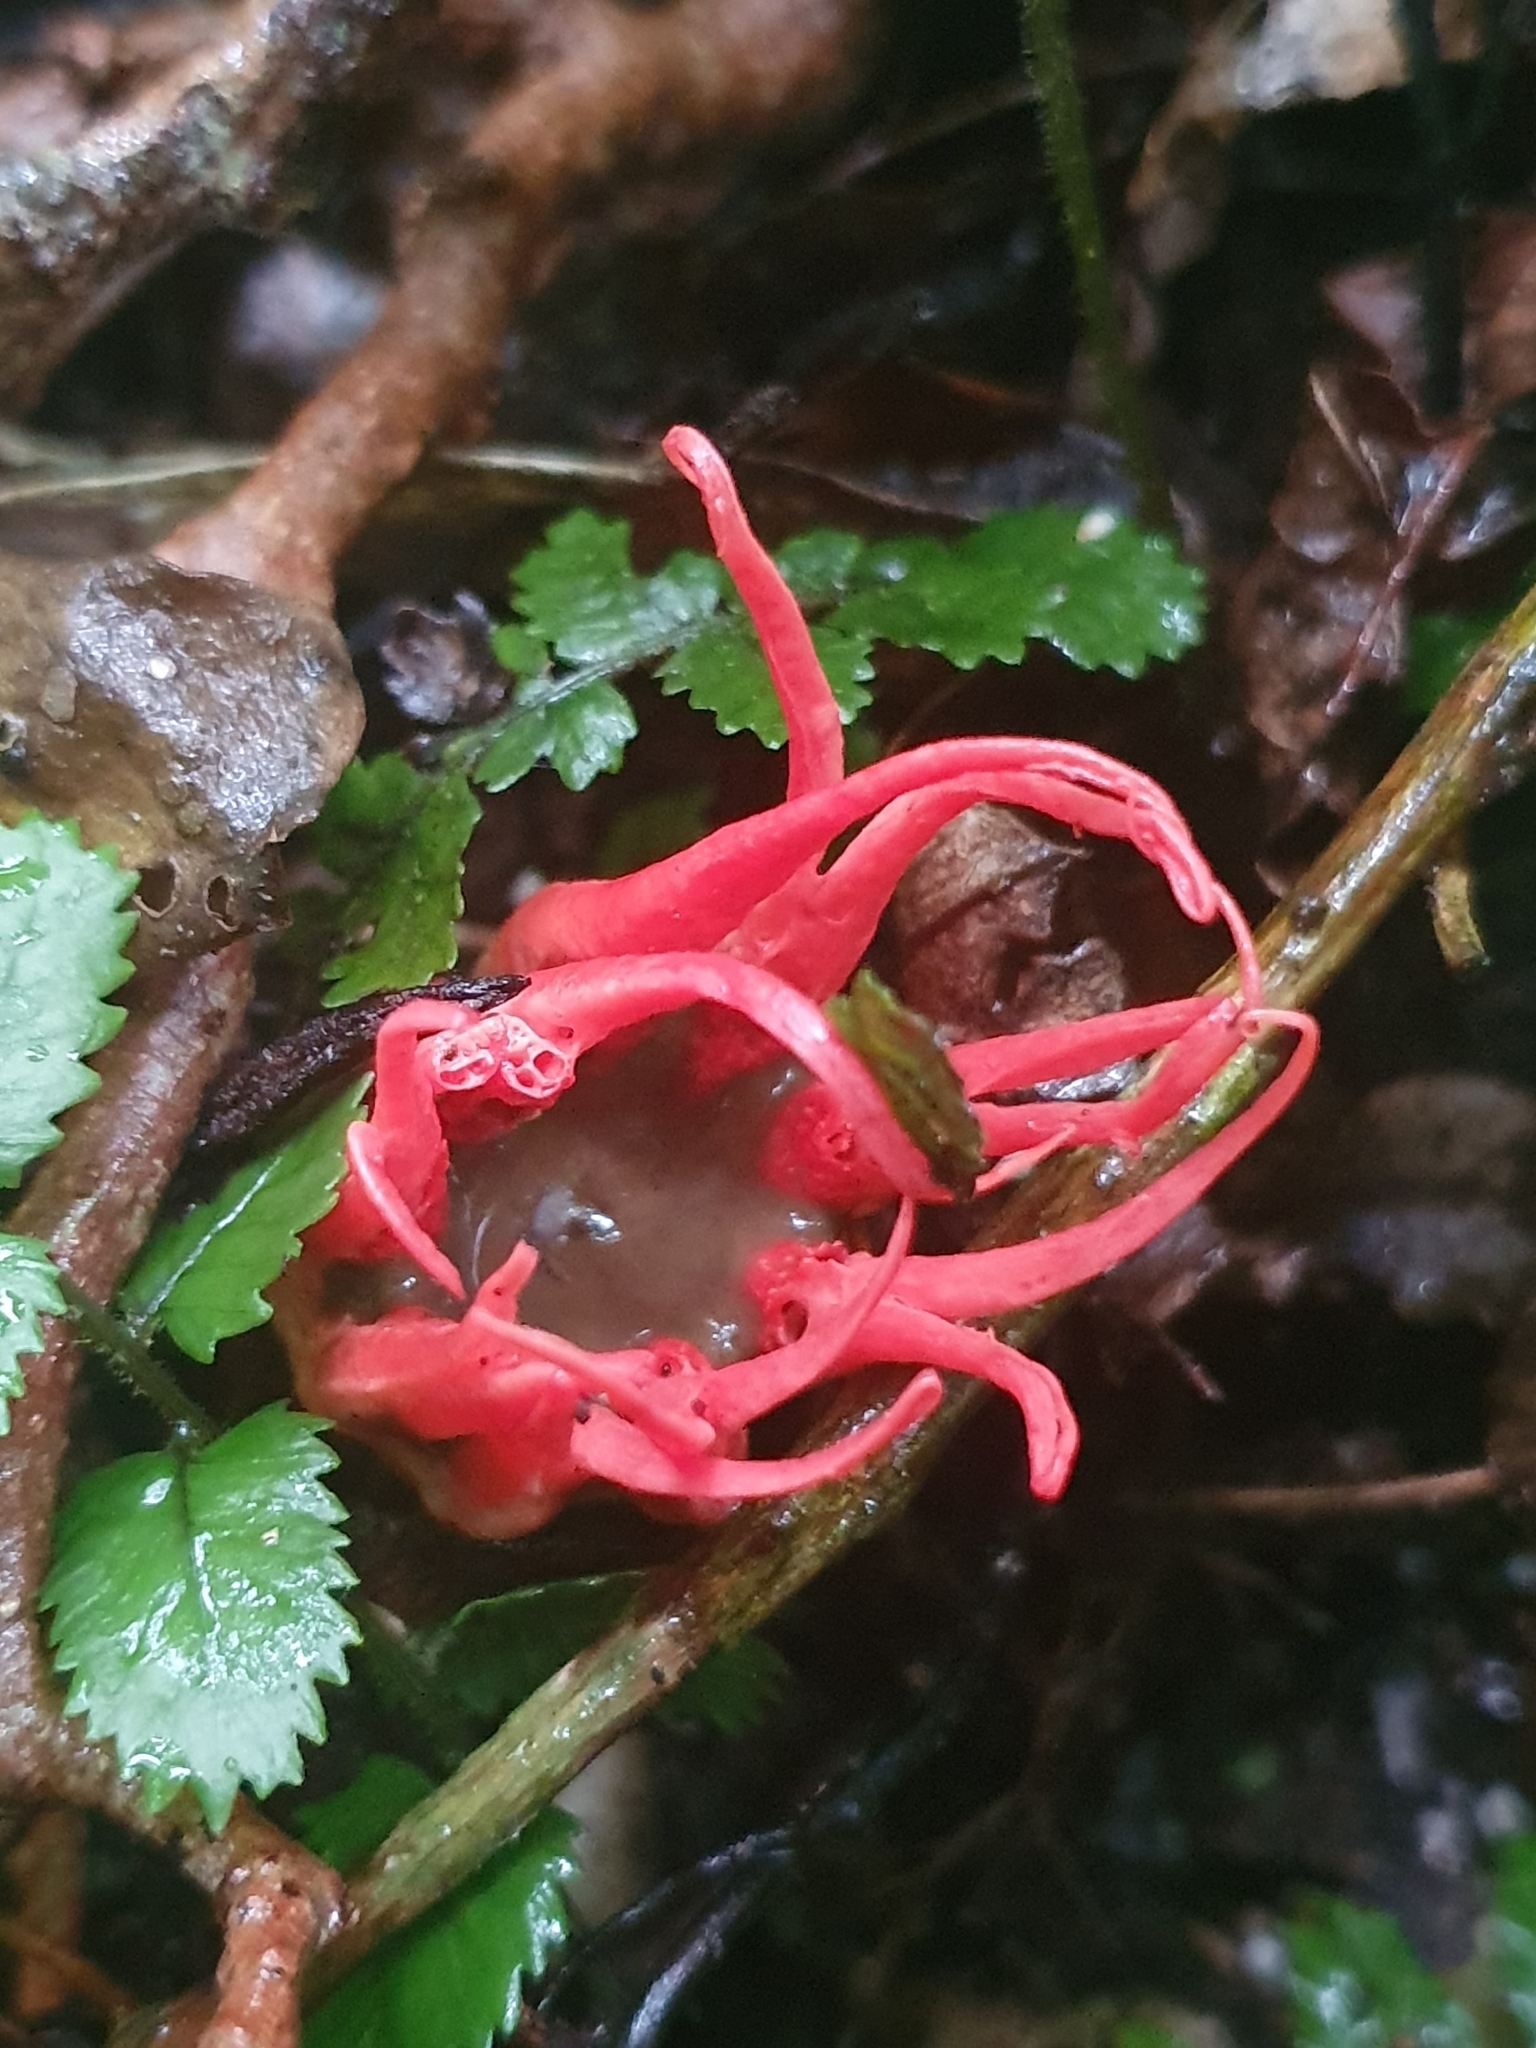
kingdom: Fungi
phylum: Basidiomycota
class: Agaricomycetes
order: Phallales
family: Phallaceae
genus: Aseroe
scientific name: Aseroe rubra
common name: Starfish fungus
